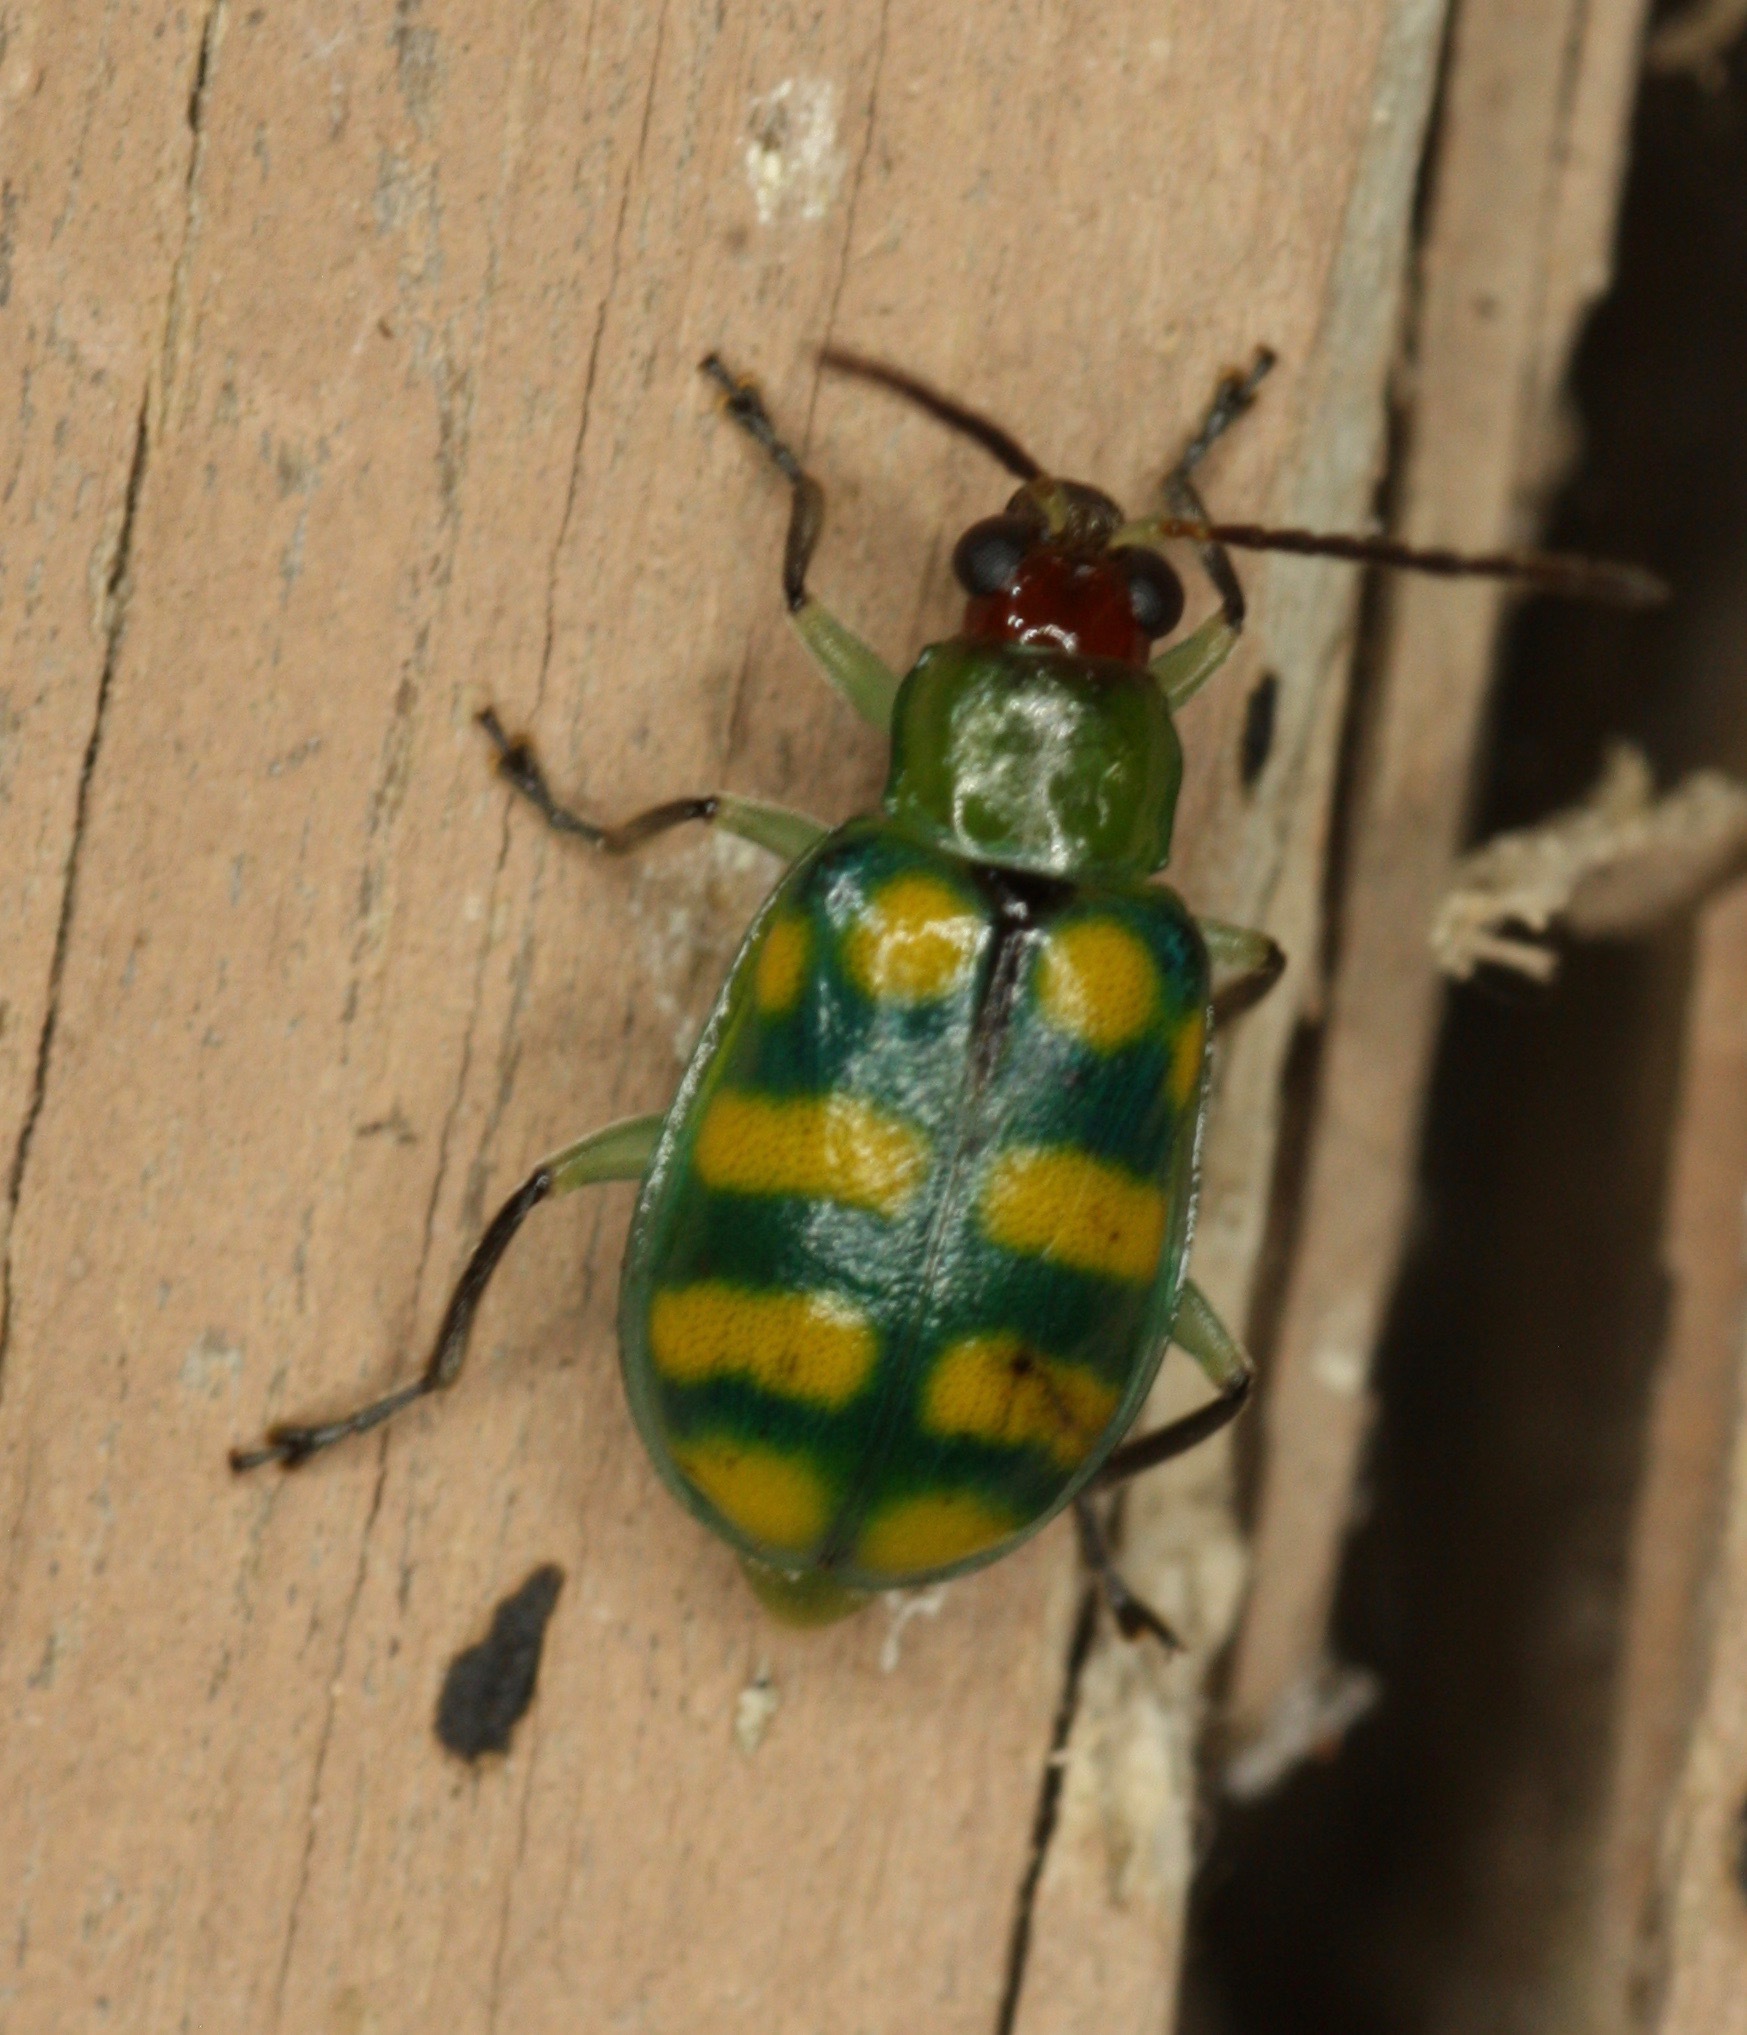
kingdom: Animalia
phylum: Arthropoda
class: Insecta
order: Coleoptera
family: Chrysomelidae
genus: Diabrotica
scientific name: Diabrotica balteata
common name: Leaf beetle
